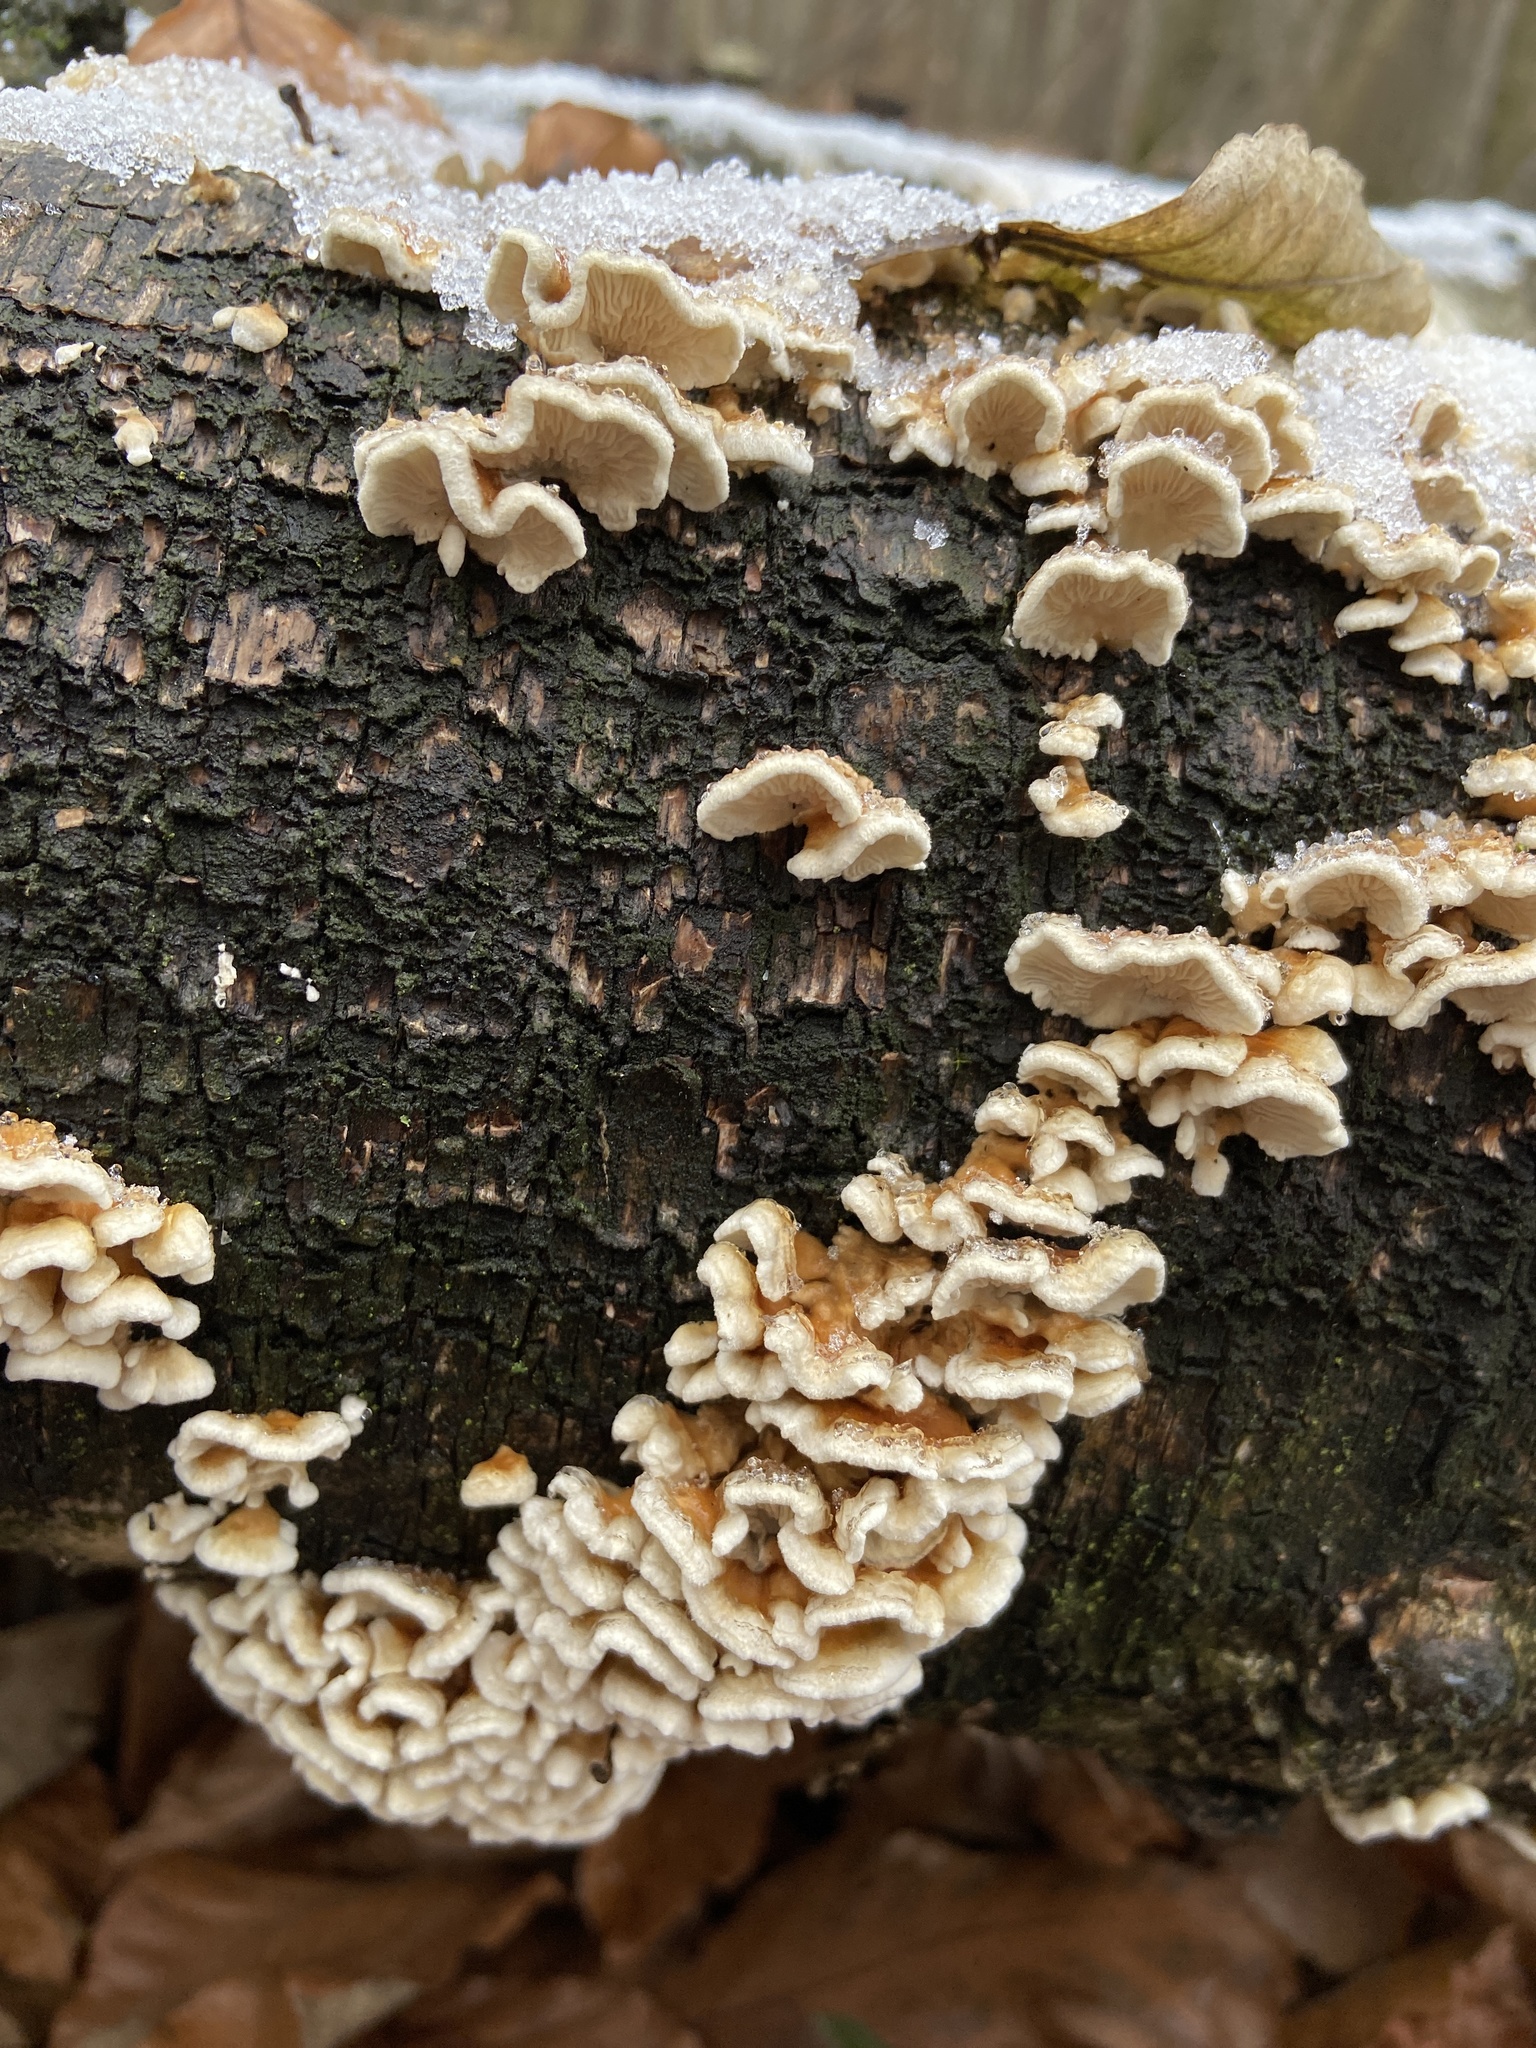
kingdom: Fungi
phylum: Basidiomycota
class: Agaricomycetes
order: Amylocorticiales
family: Amylocorticiaceae
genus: Plicaturopsis
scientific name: Plicaturopsis crispa
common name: Crimped gill
